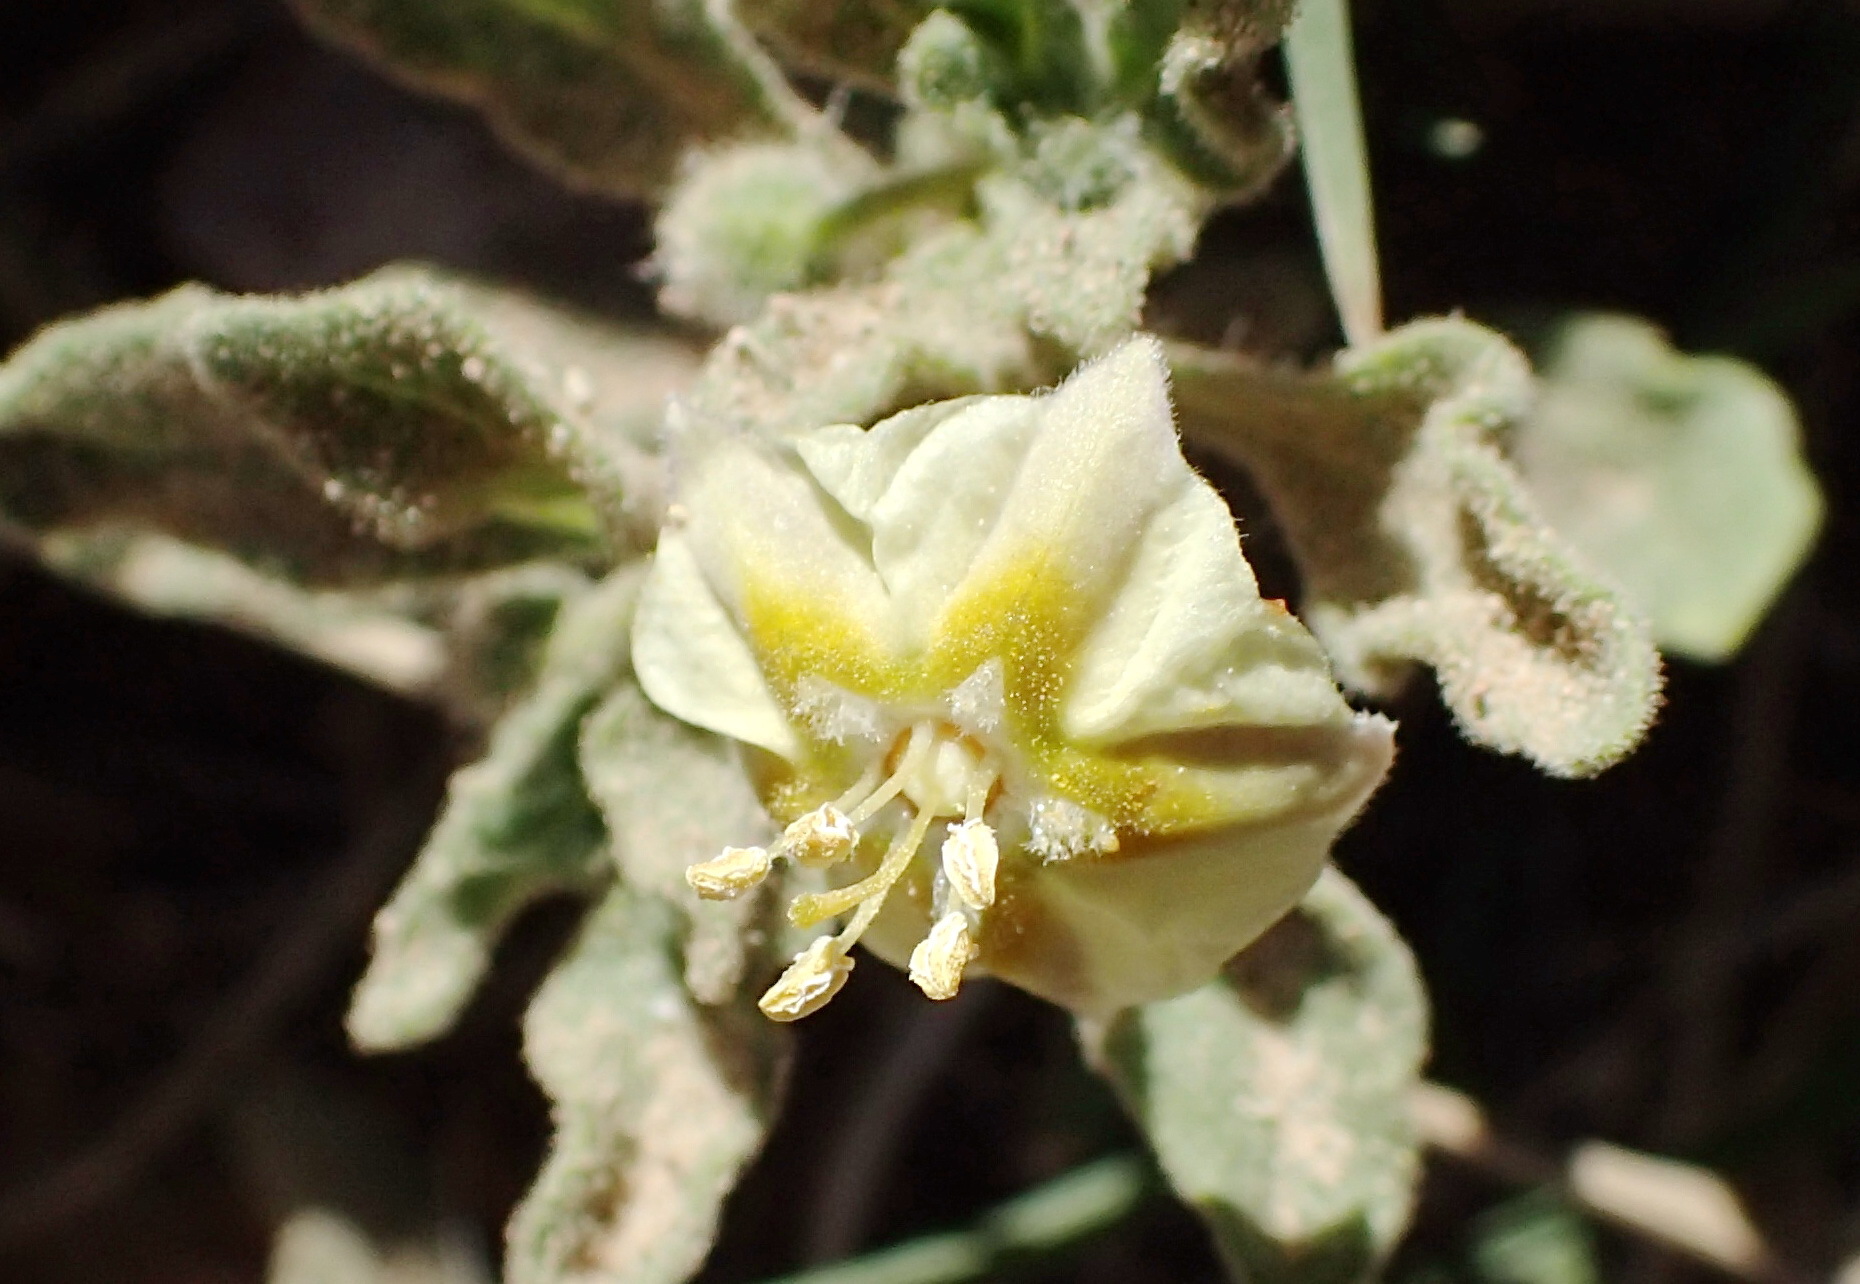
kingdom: Plantae
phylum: Tracheophyta
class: Magnoliopsida
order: Solanales
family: Solanaceae
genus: Chamaesaracha
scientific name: Chamaesaracha sordida
